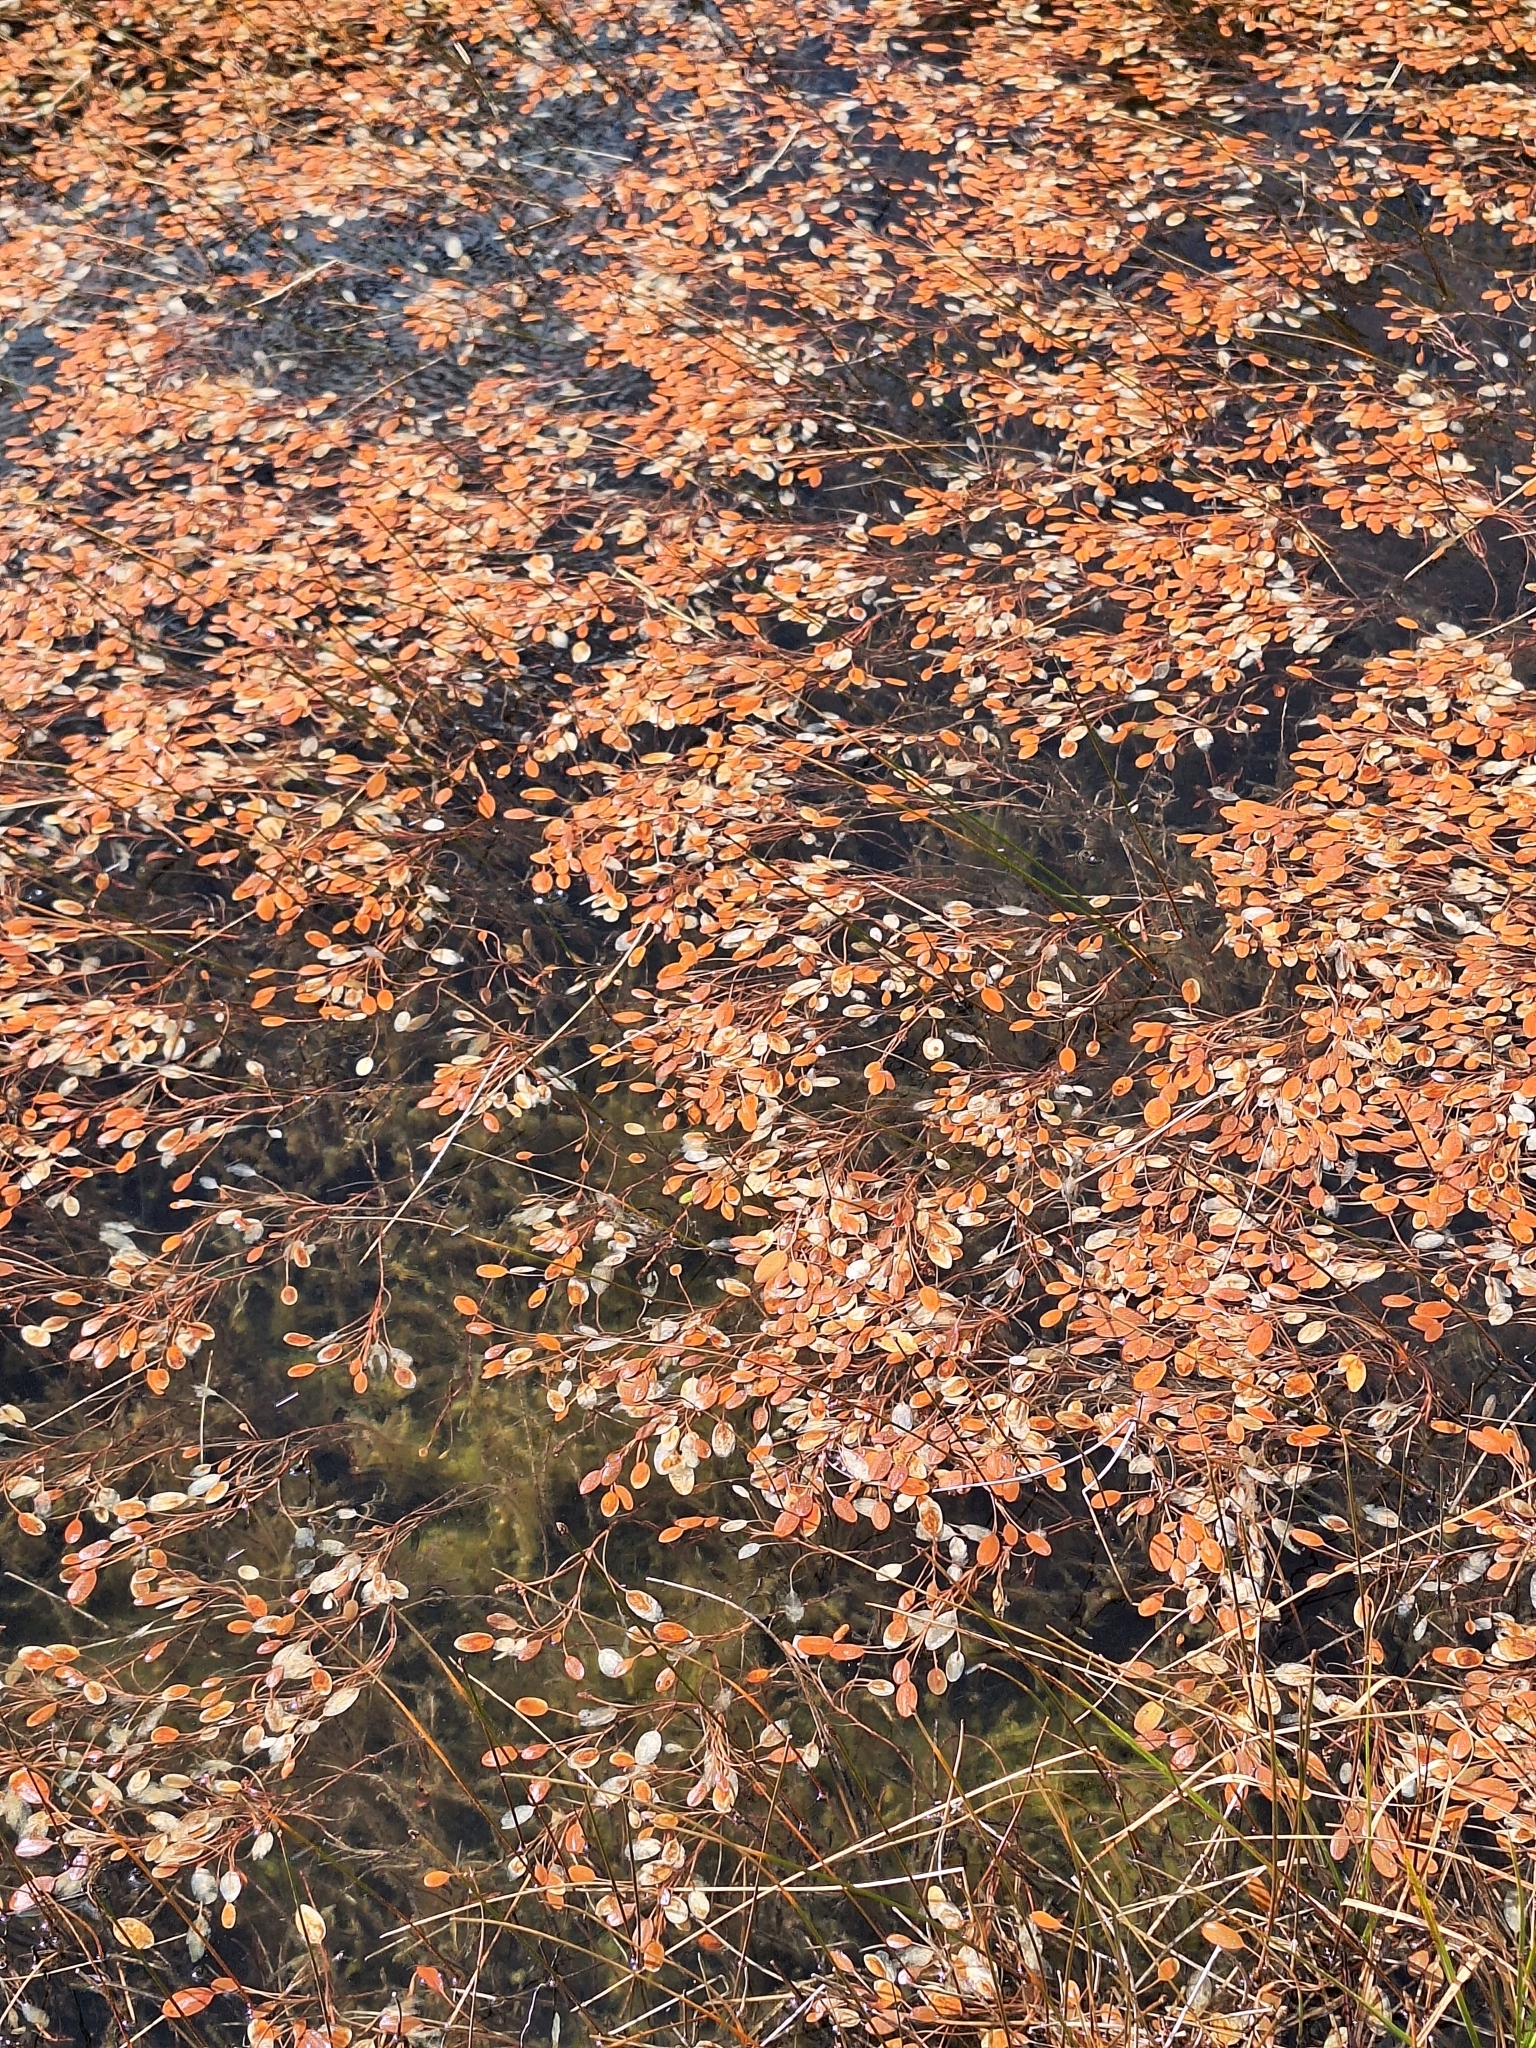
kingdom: Plantae
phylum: Tracheophyta
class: Liliopsida
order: Alismatales
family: Potamogetonaceae
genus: Potamogeton
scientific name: Potamogeton cheesemanii
